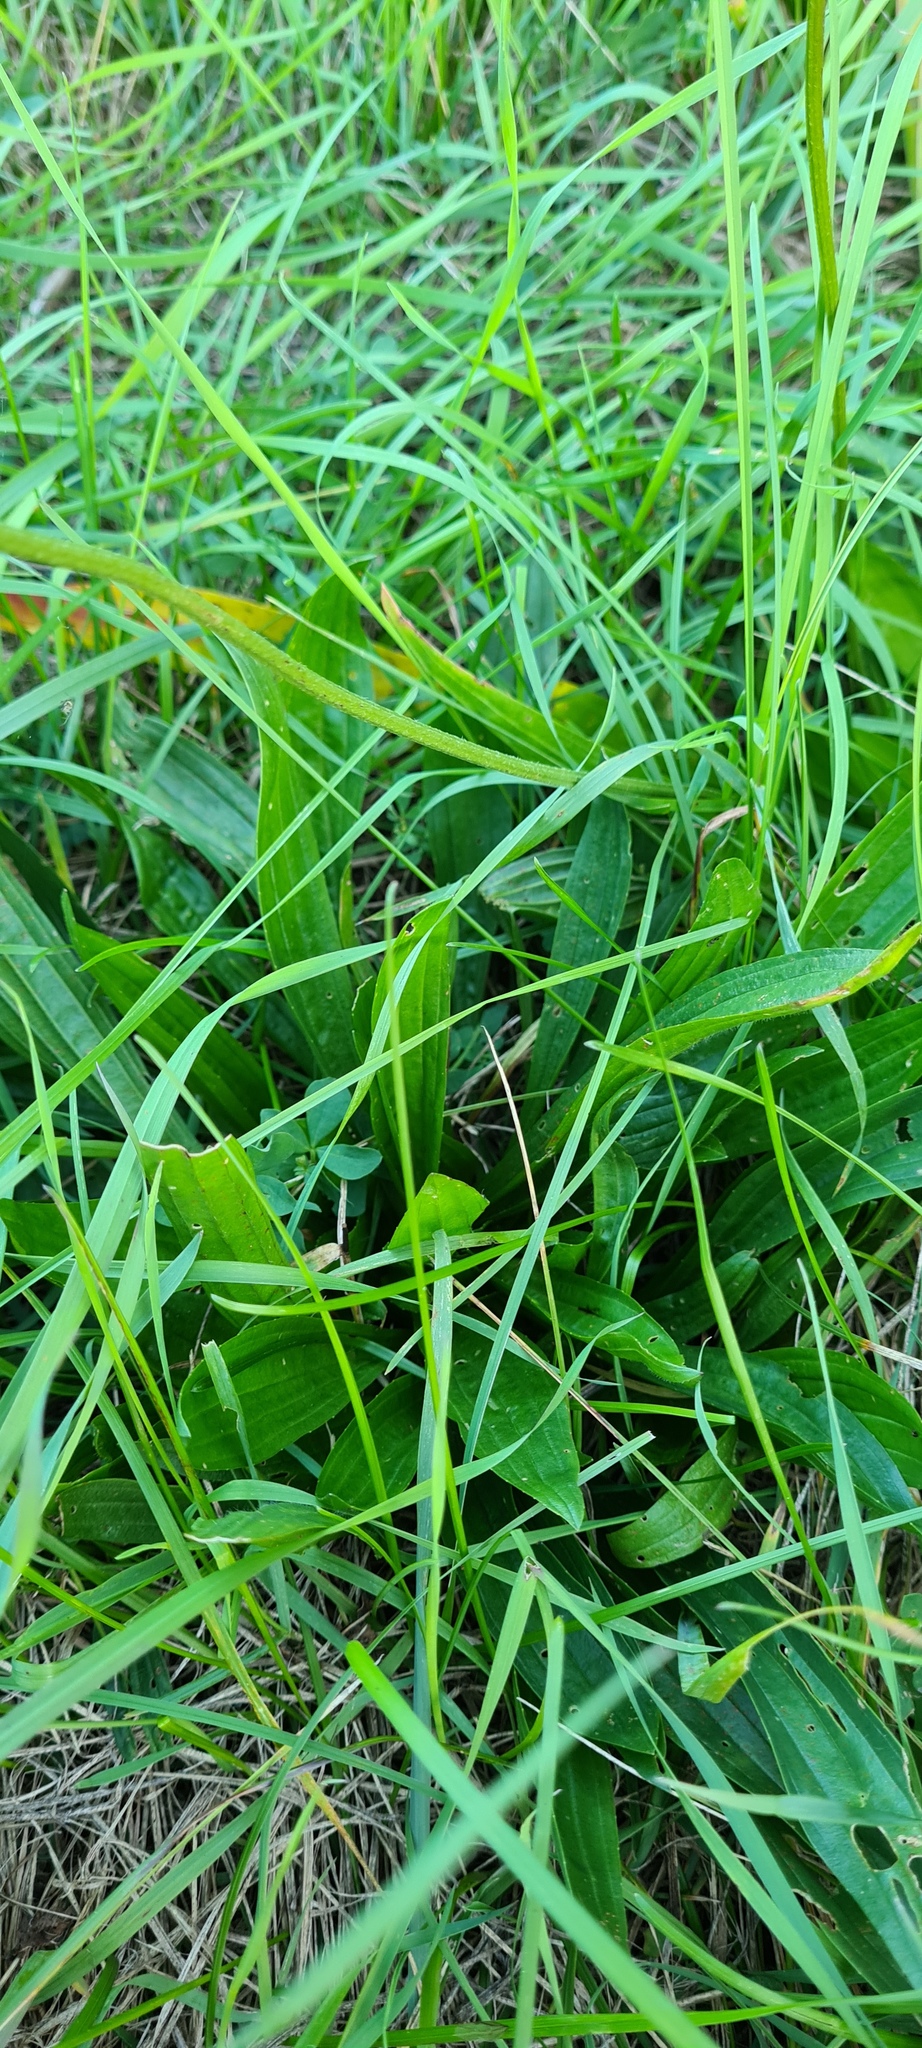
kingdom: Plantae
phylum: Tracheophyta
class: Magnoliopsida
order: Lamiales
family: Plantaginaceae
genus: Plantago
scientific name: Plantago lanceolata
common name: Ribwort plantain
